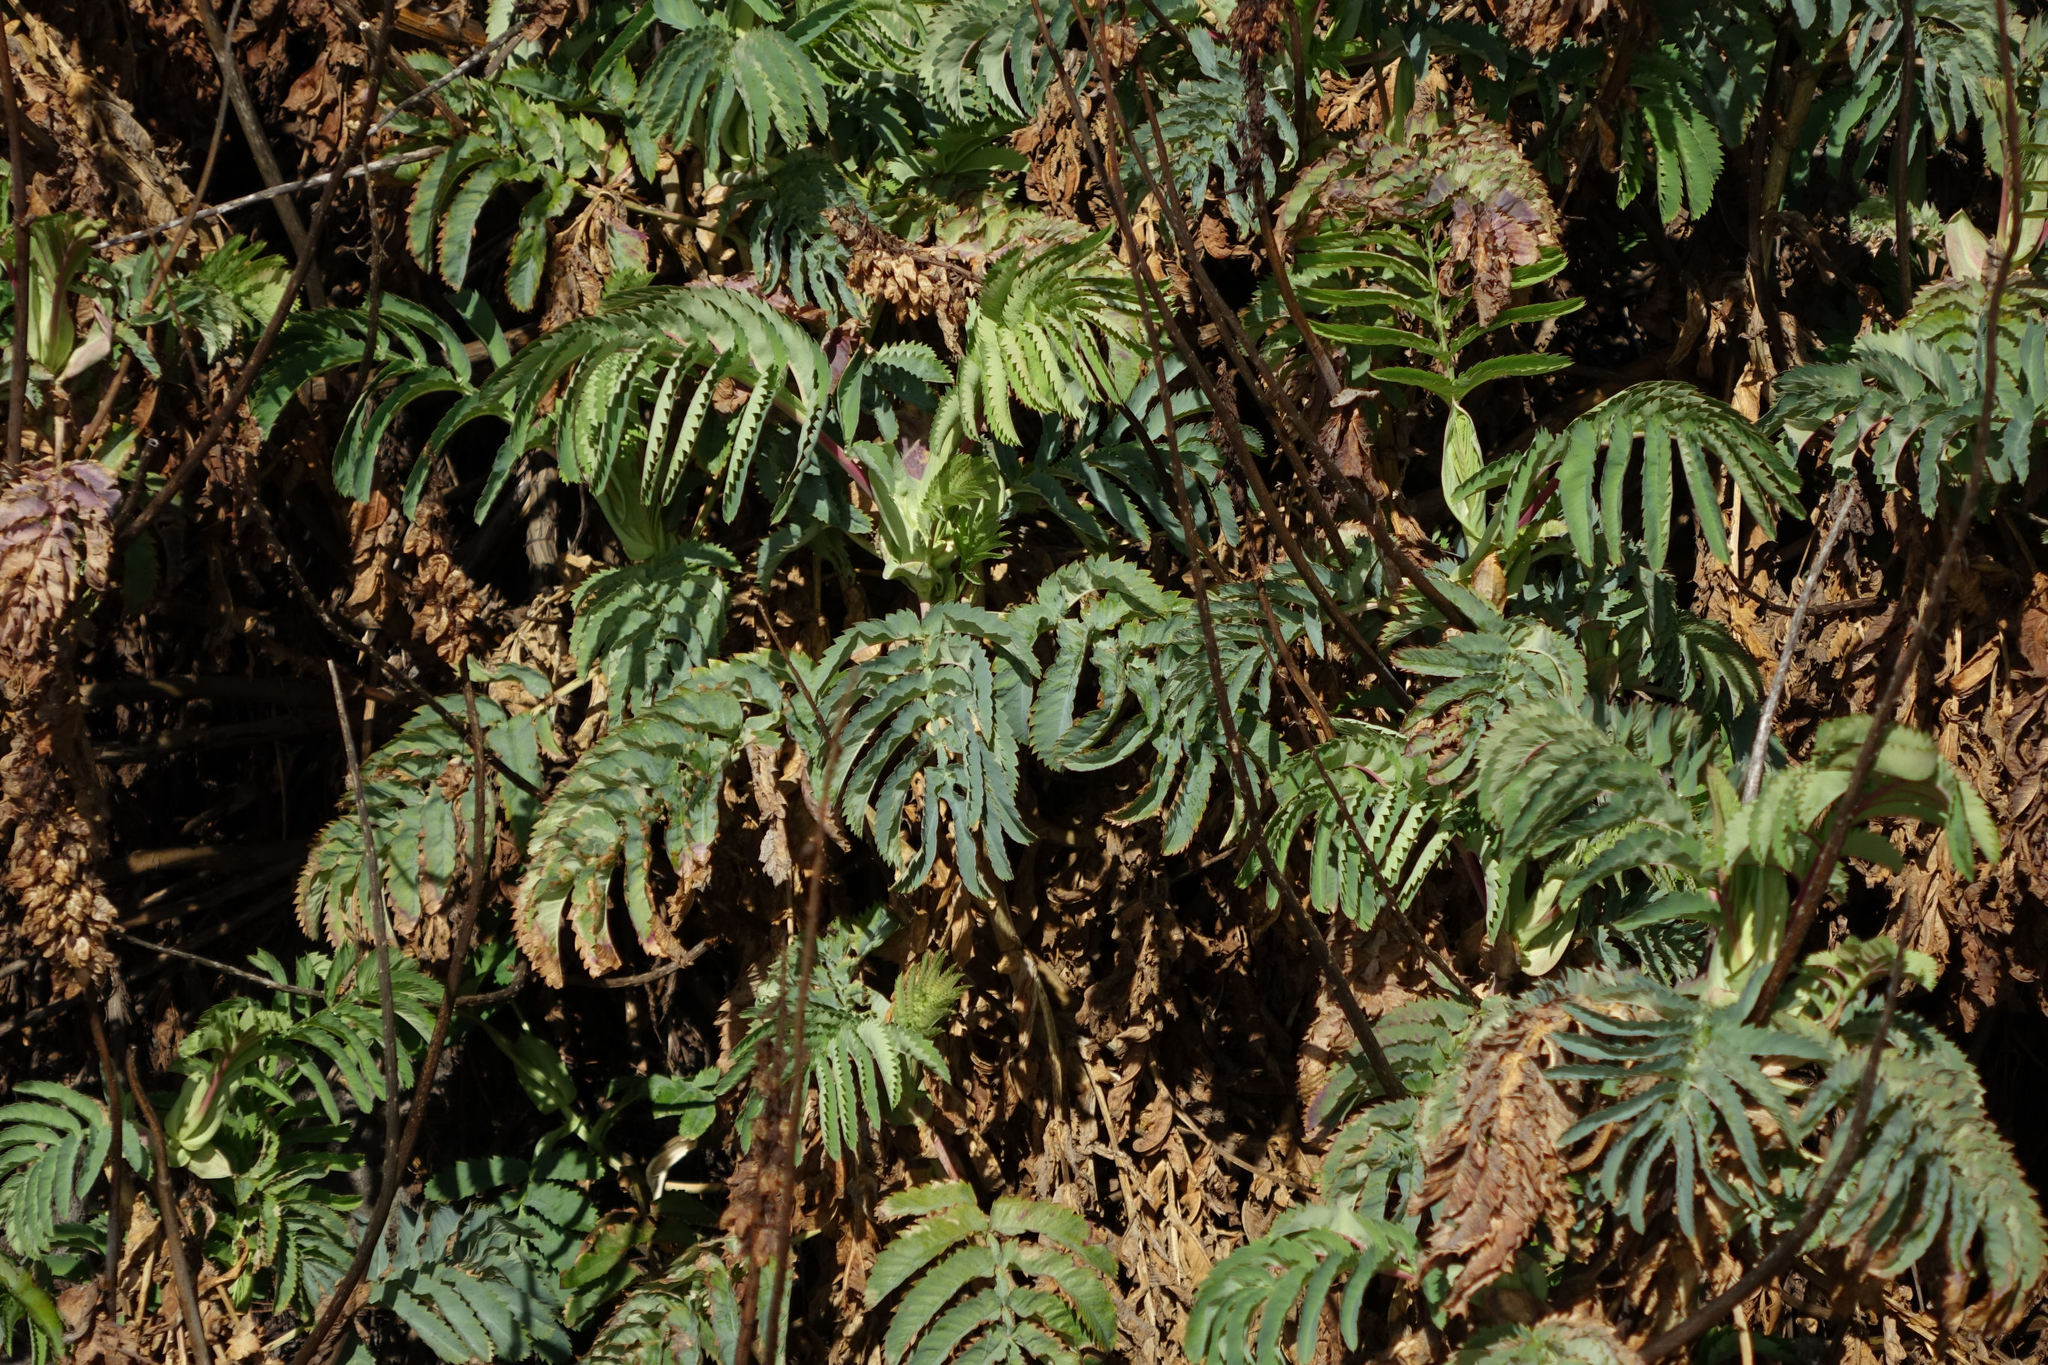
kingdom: Plantae
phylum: Tracheophyta
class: Magnoliopsida
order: Geraniales
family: Melianthaceae
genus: Melianthus
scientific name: Melianthus major
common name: Honey-flower
